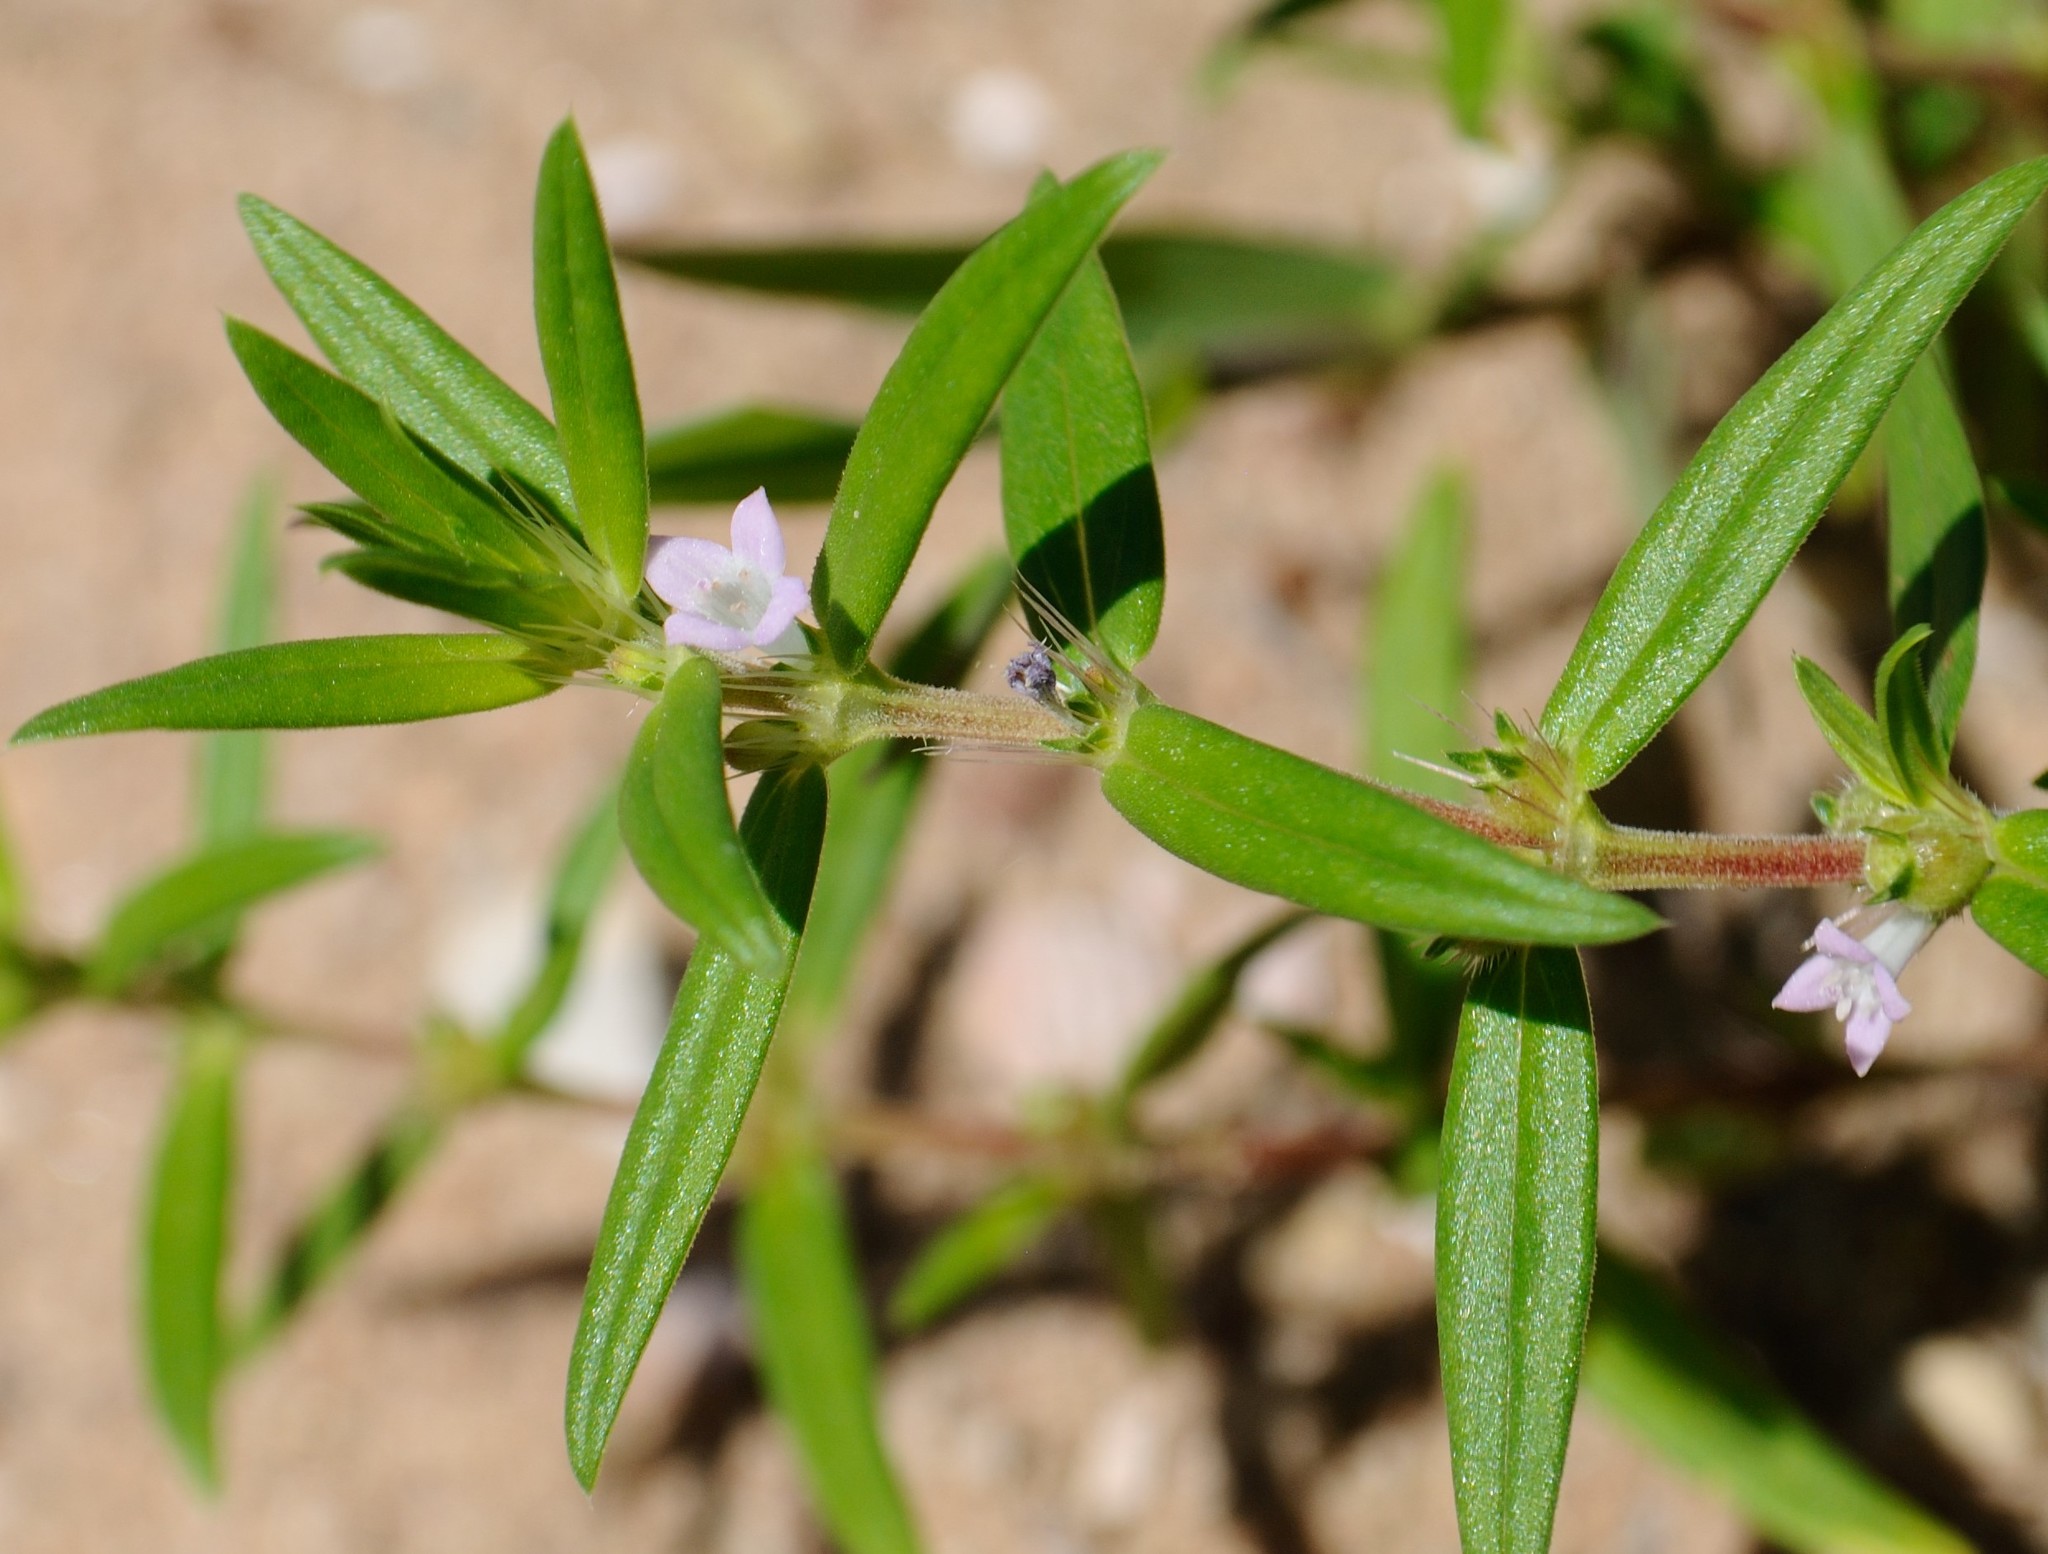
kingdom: Plantae
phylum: Tracheophyta
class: Magnoliopsida
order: Gentianales
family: Rubiaceae
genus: Hexasepalum
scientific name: Hexasepalum teres
